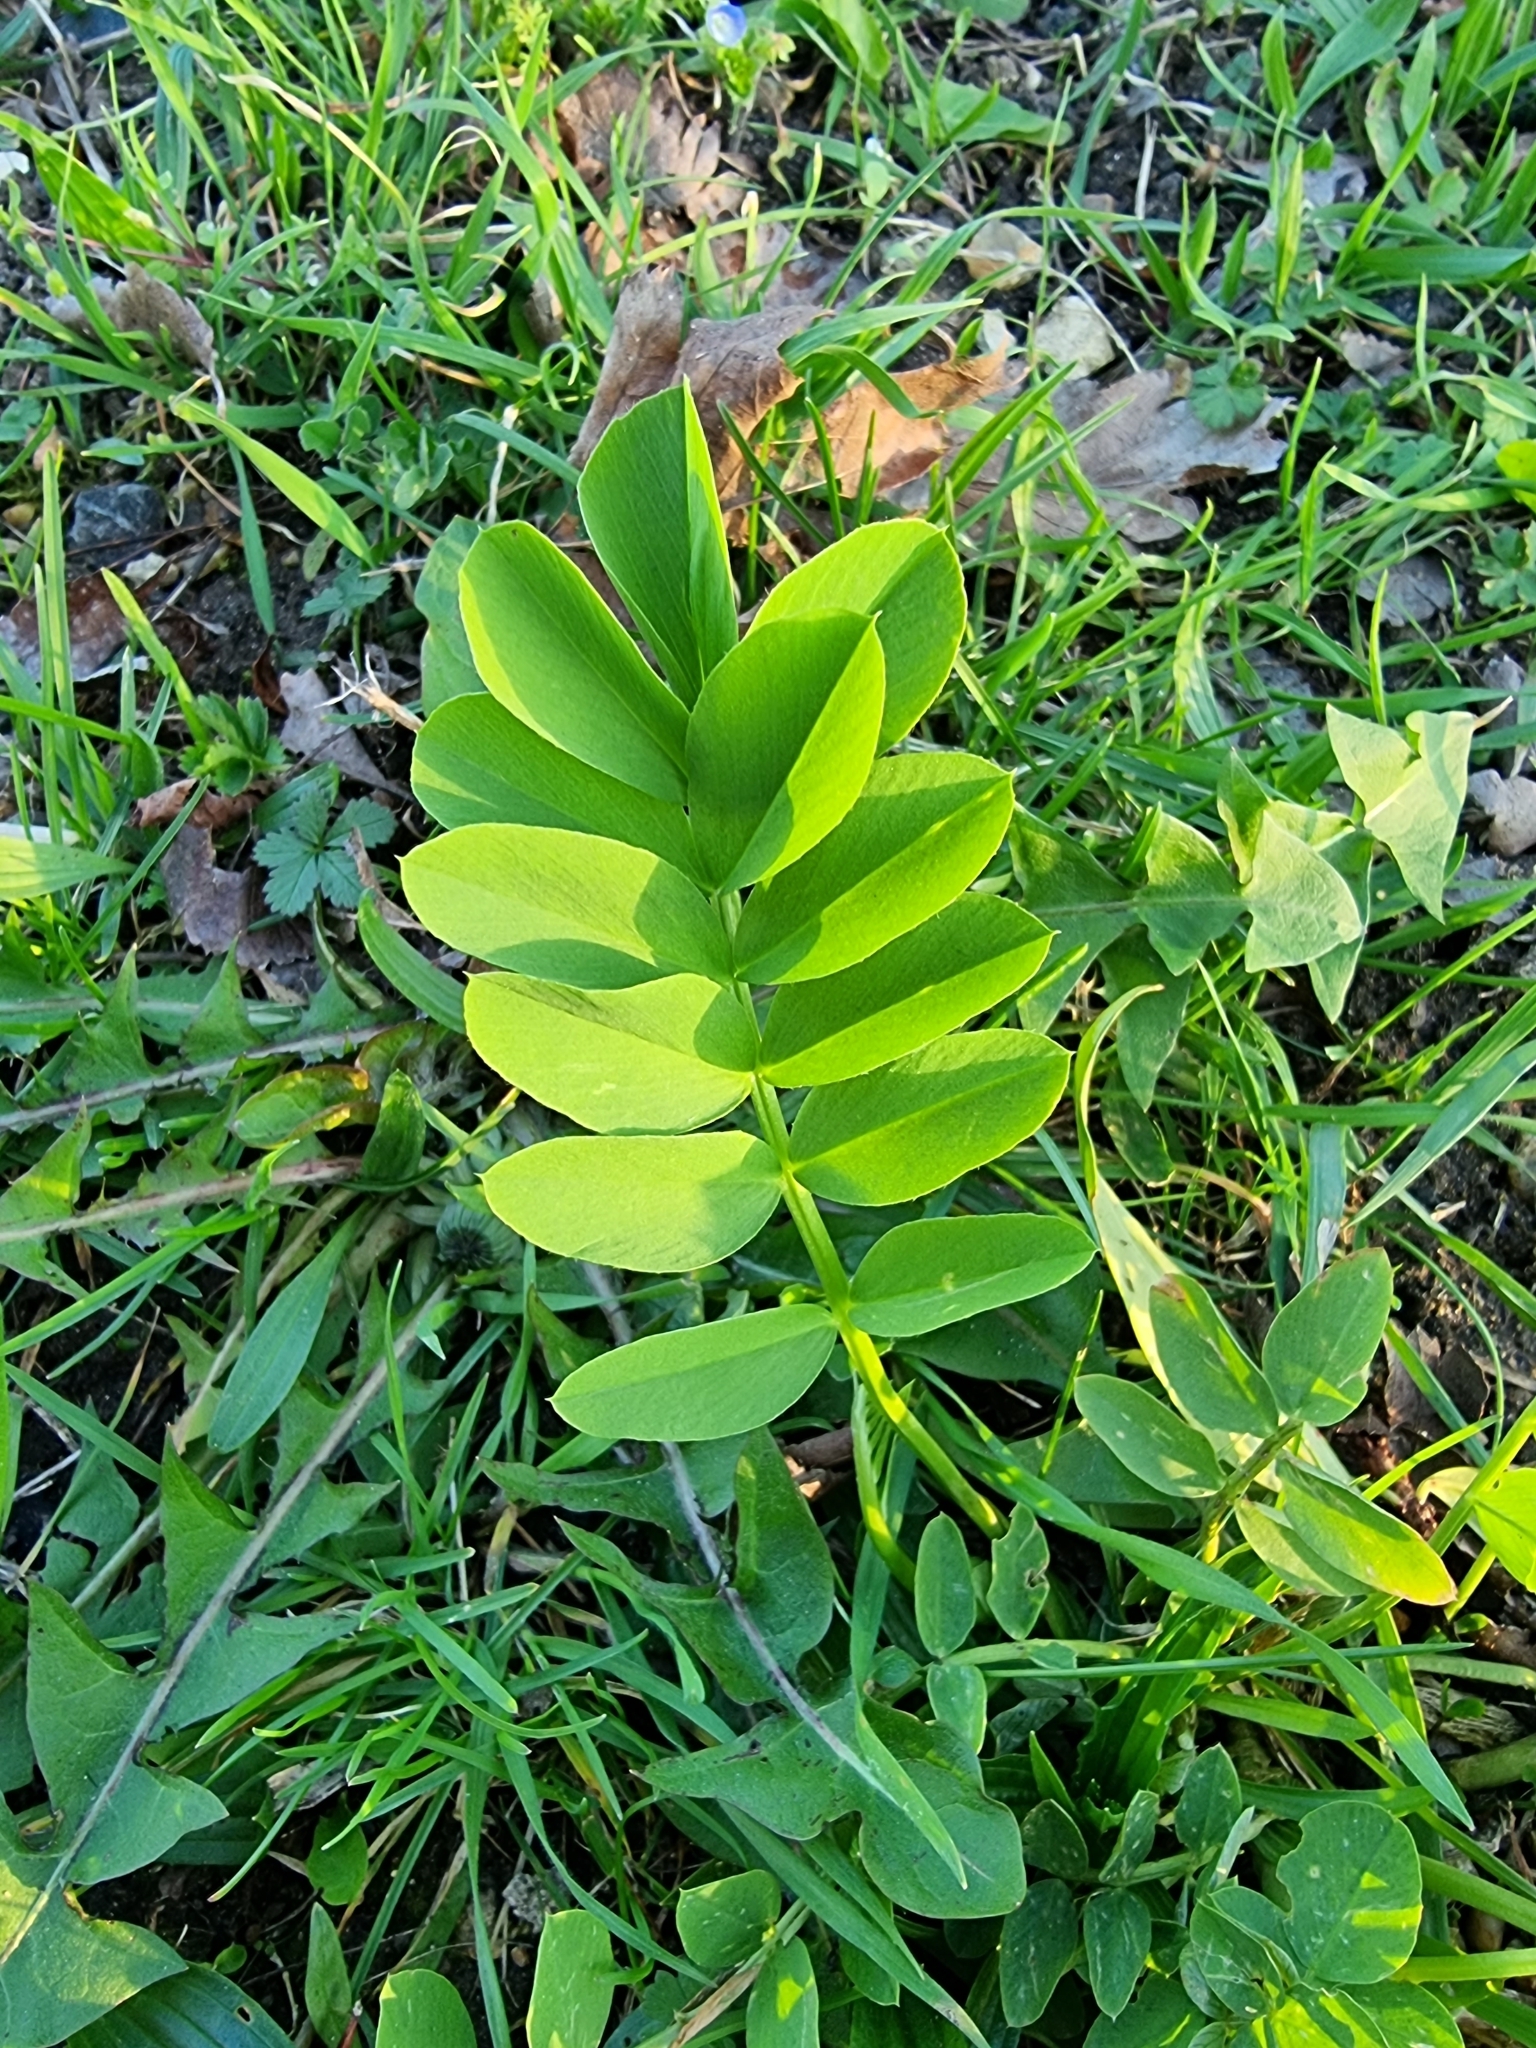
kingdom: Plantae
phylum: Tracheophyta
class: Magnoliopsida
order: Fabales
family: Fabaceae
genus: Galega
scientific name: Galega officinalis
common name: Goat's-rue
